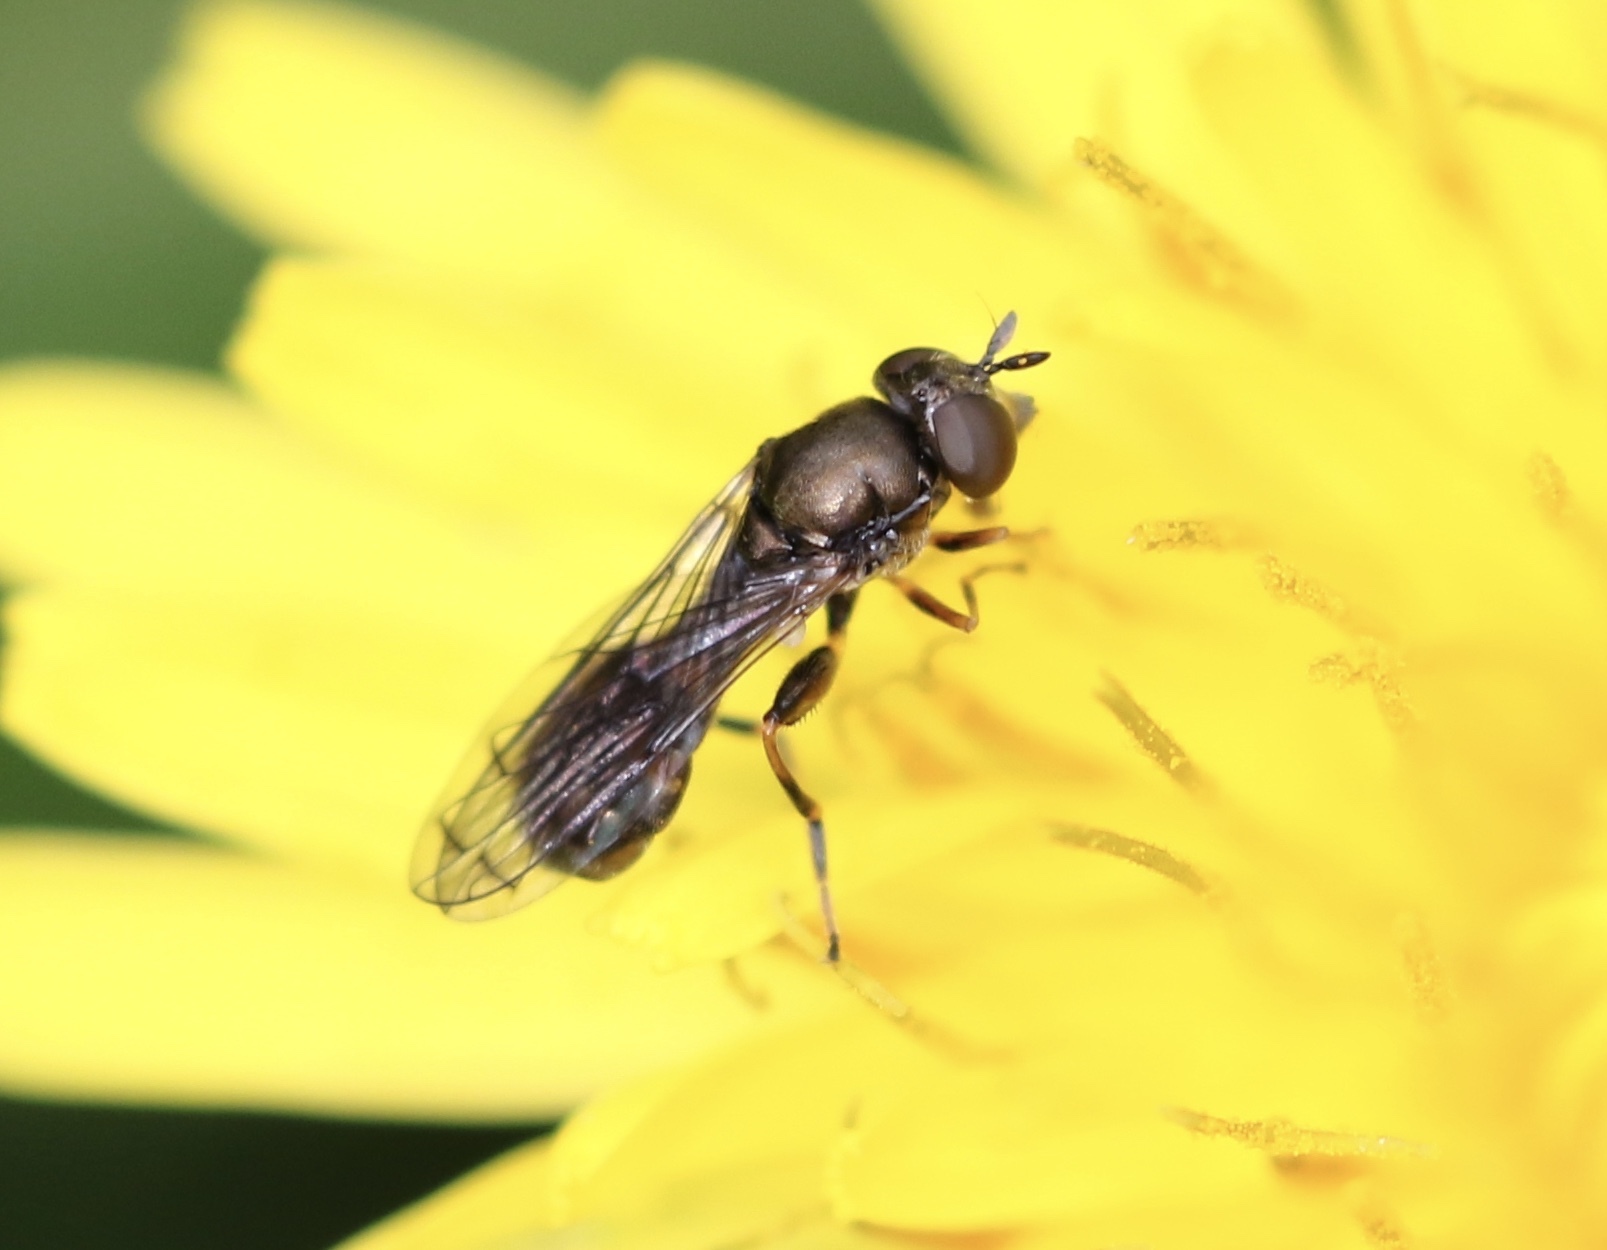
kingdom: Animalia
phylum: Arthropoda
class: Insecta
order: Diptera
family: Syrphidae
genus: Neoascia
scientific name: Neoascia
